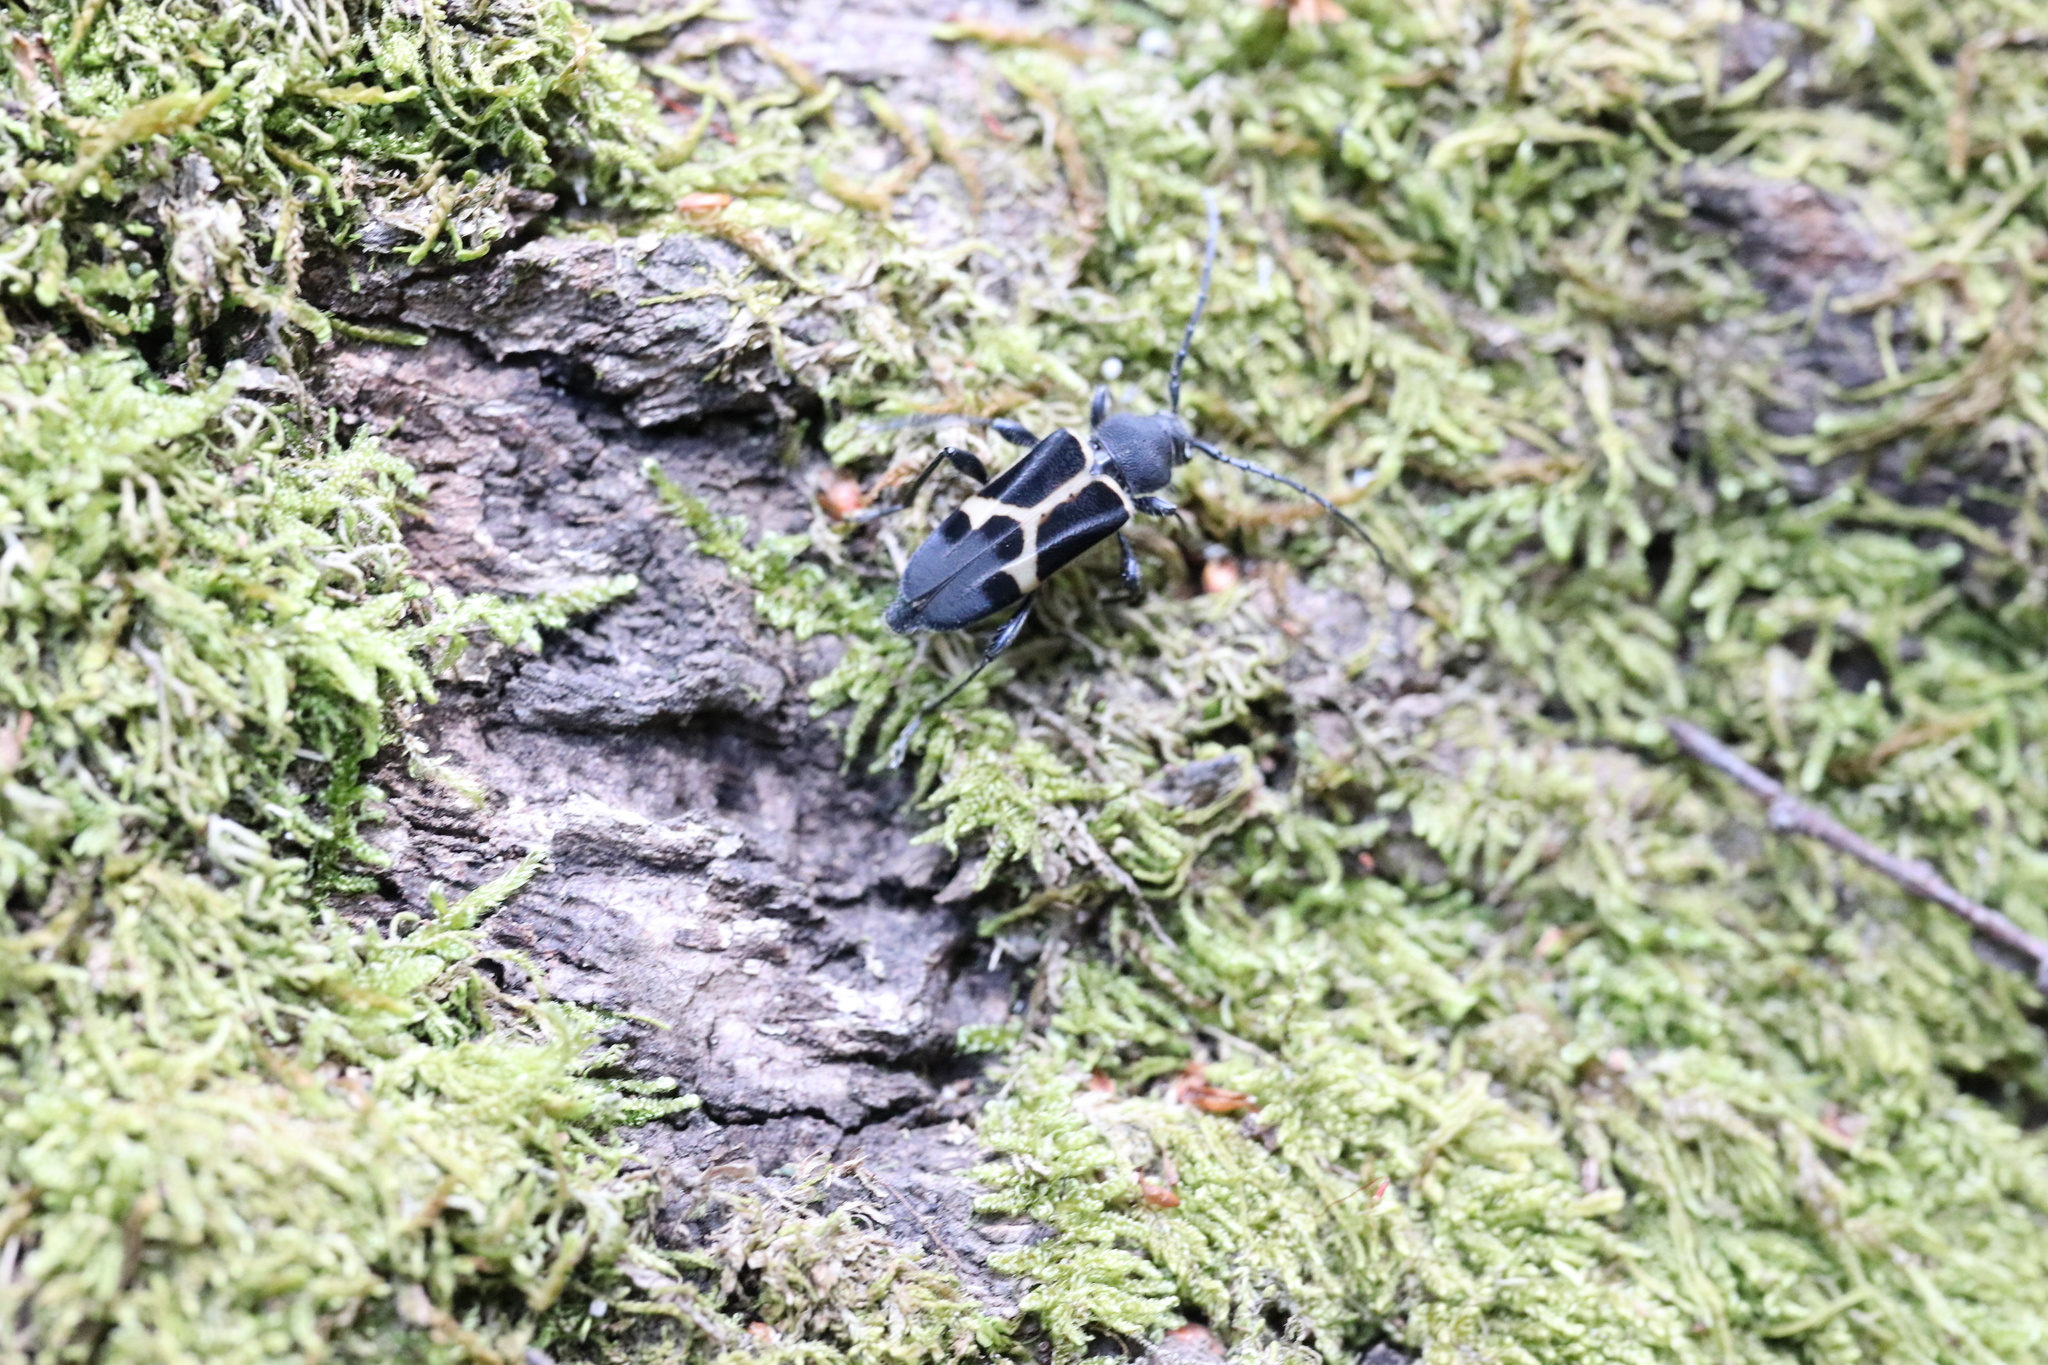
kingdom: Animalia
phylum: Arthropoda
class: Insecta
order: Coleoptera
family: Cerambycidae
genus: Calydon
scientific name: Calydon submetallicum
